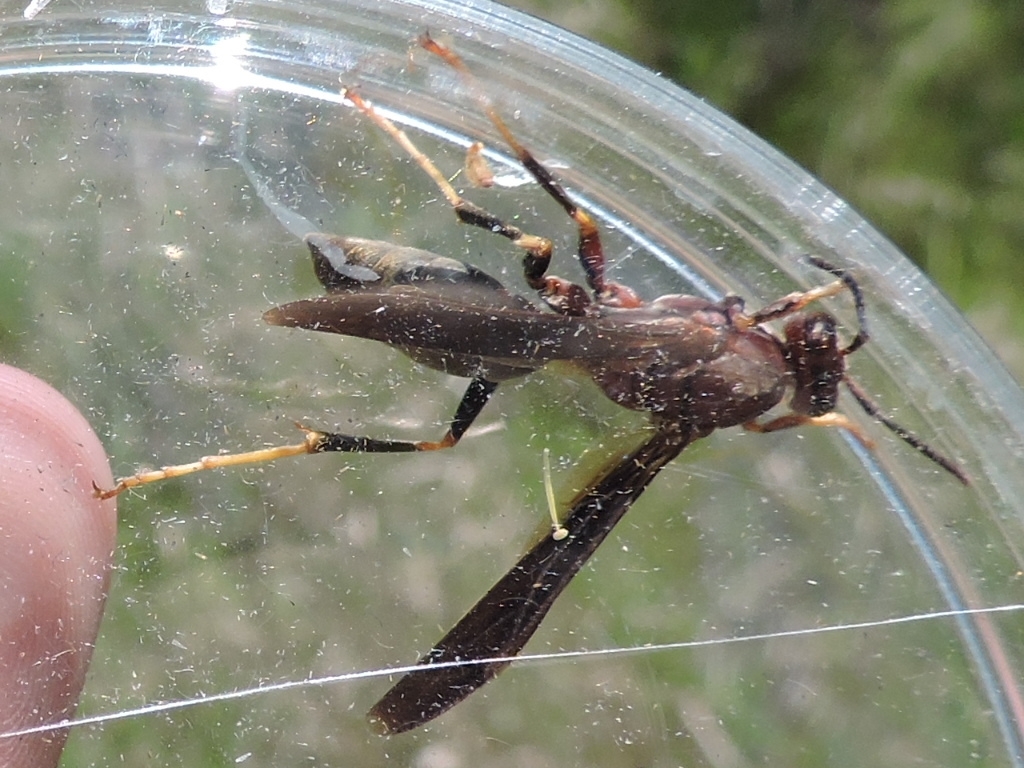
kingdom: Animalia
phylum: Arthropoda
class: Insecta
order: Hymenoptera
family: Eumenidae
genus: Polistes
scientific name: Polistes metricus
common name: Metric paper wasp
